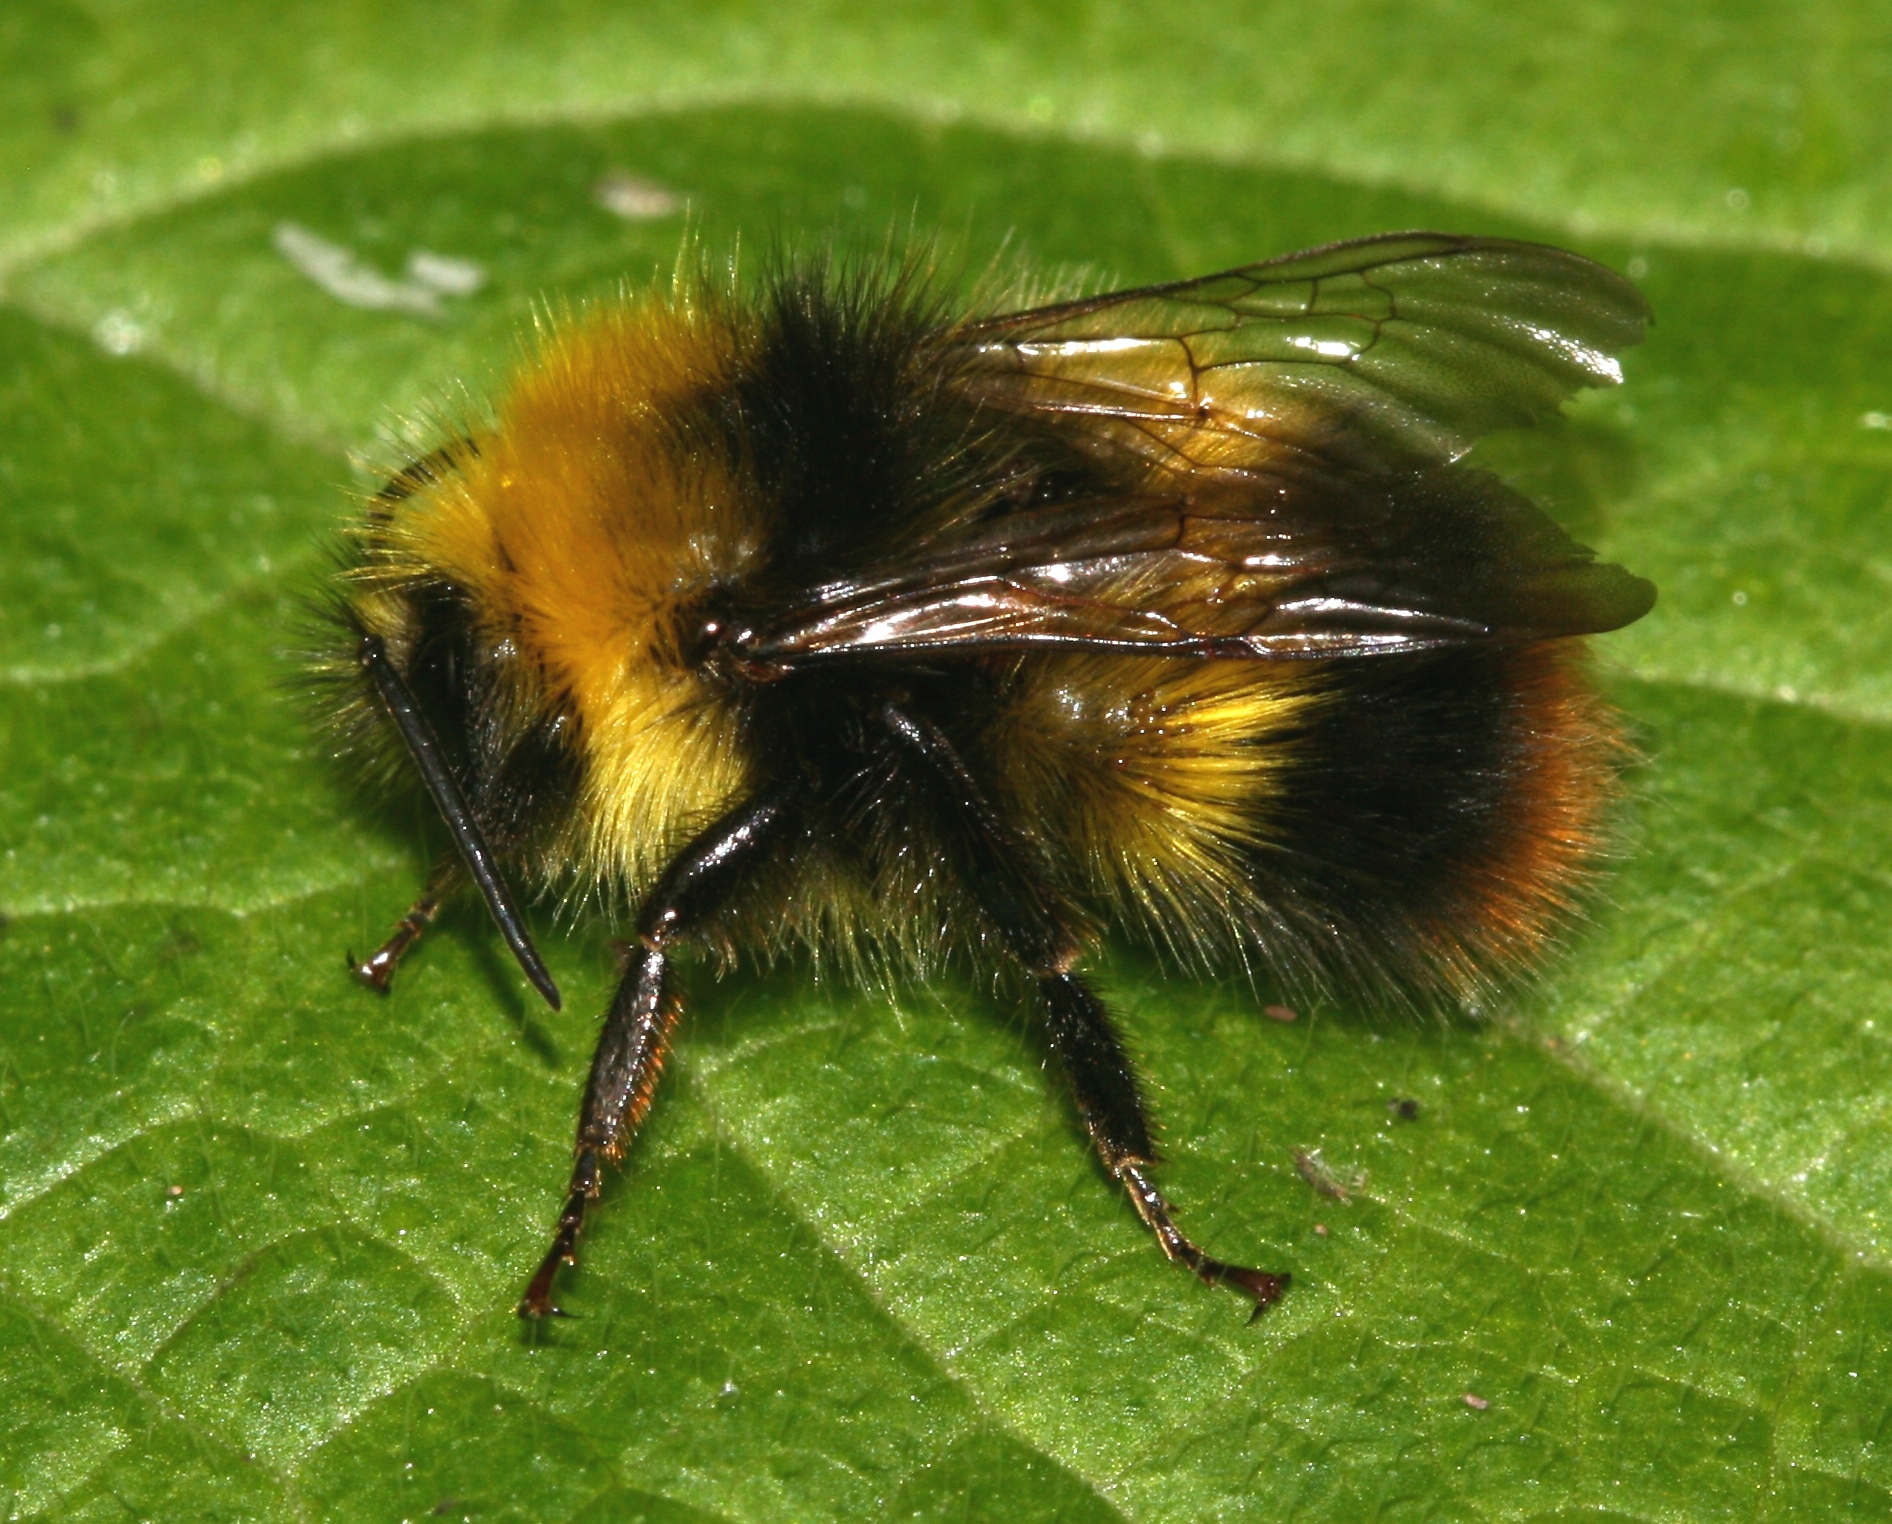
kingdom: Animalia
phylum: Arthropoda
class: Insecta
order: Hymenoptera
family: Apidae
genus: Bombus
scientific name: Bombus pratorum
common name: Early humble-bee
